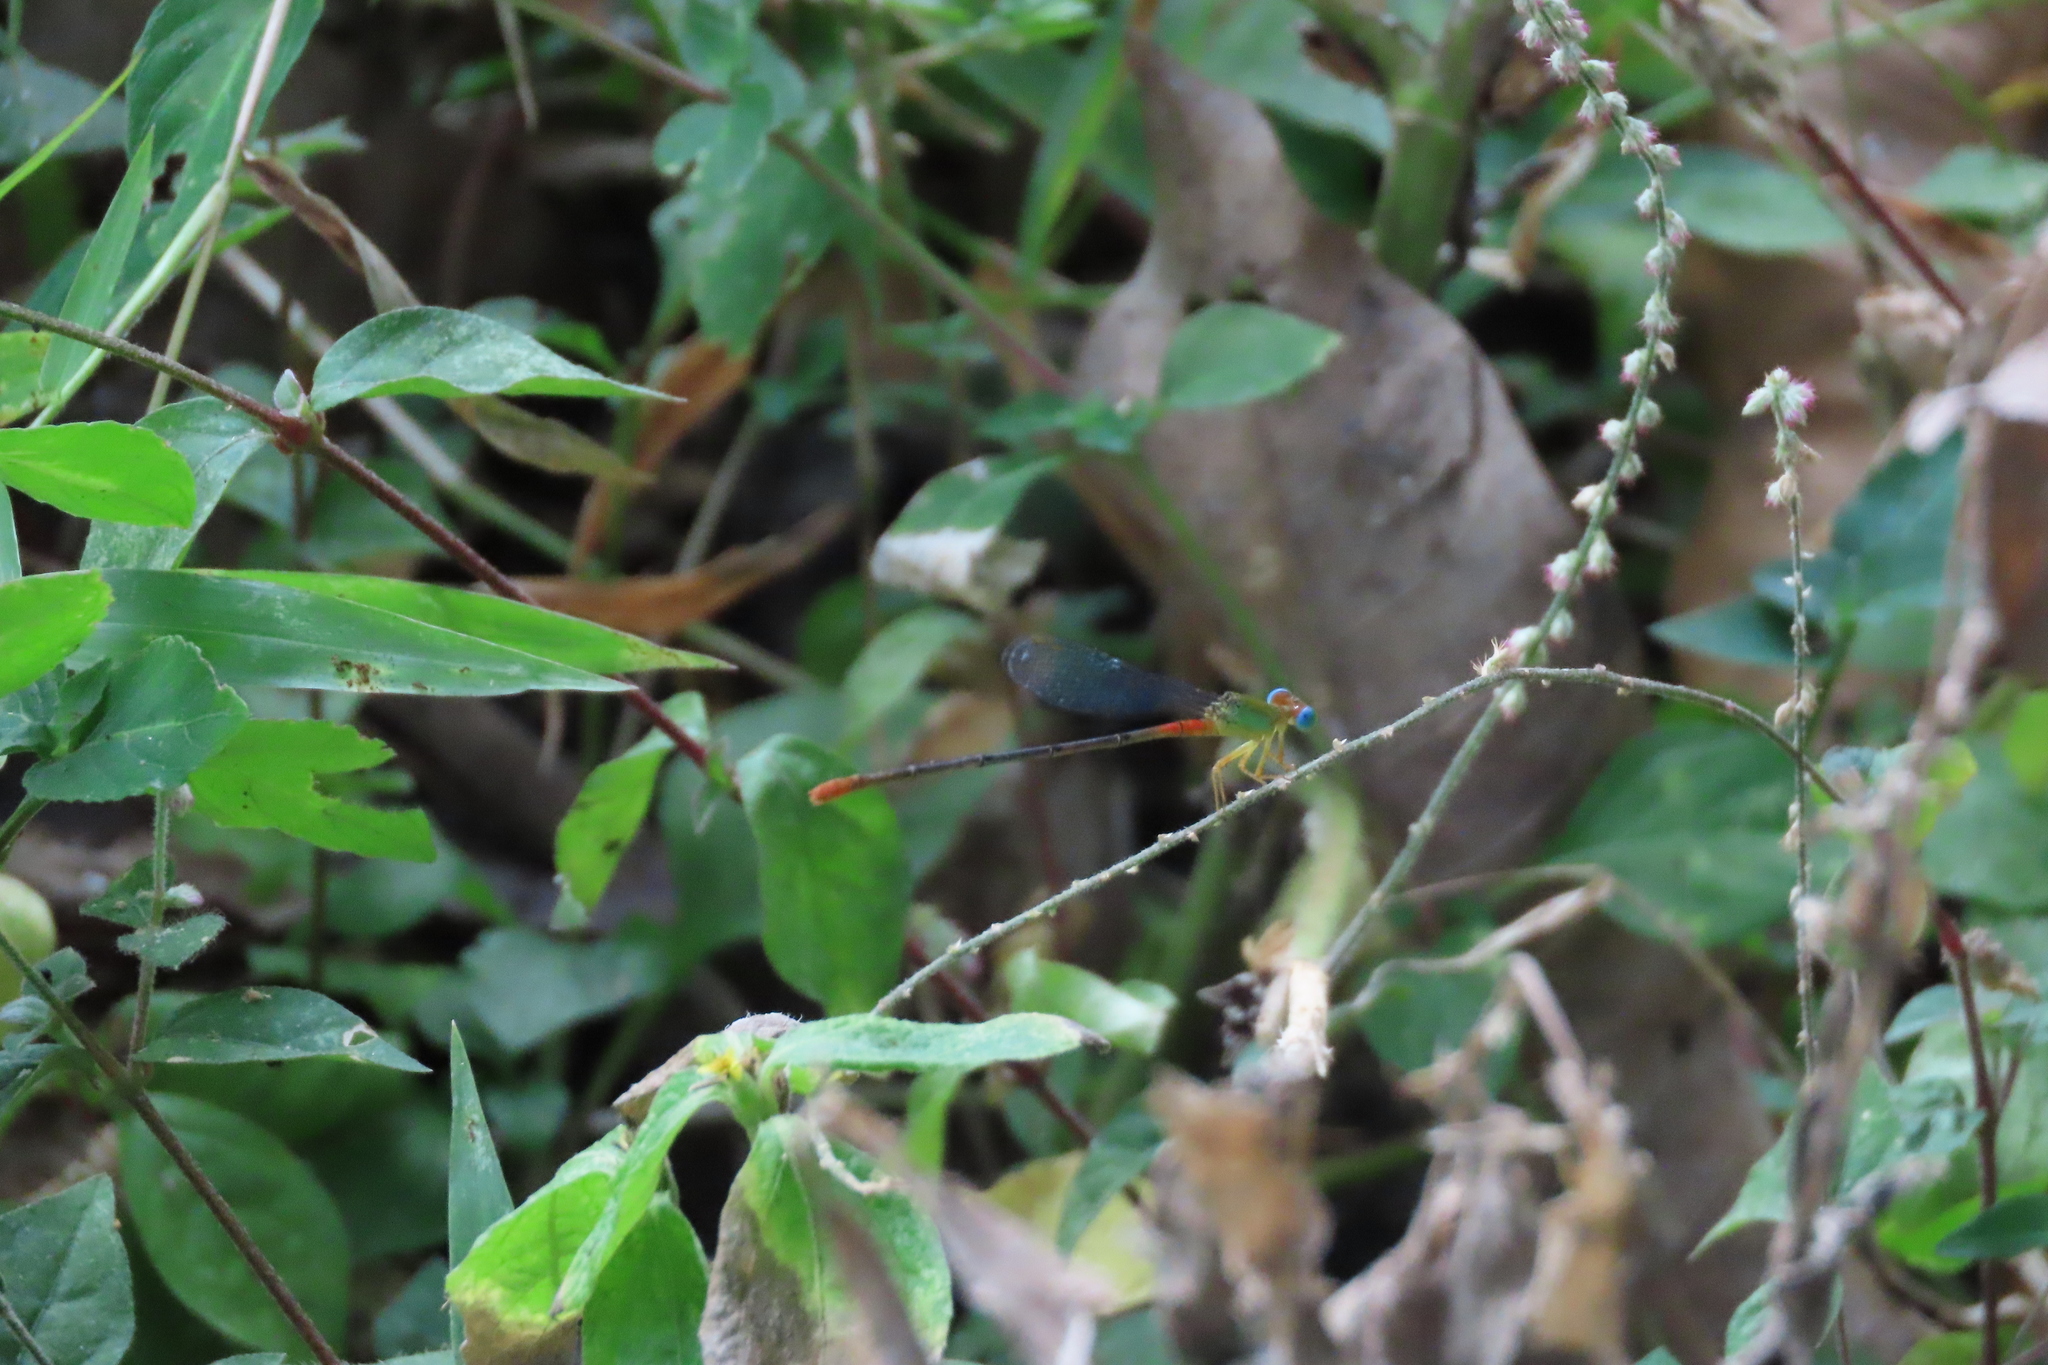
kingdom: Animalia
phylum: Arthropoda
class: Insecta
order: Odonata
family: Coenagrionidae
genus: Ceriagrion
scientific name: Ceriagrion cerinorubellum
